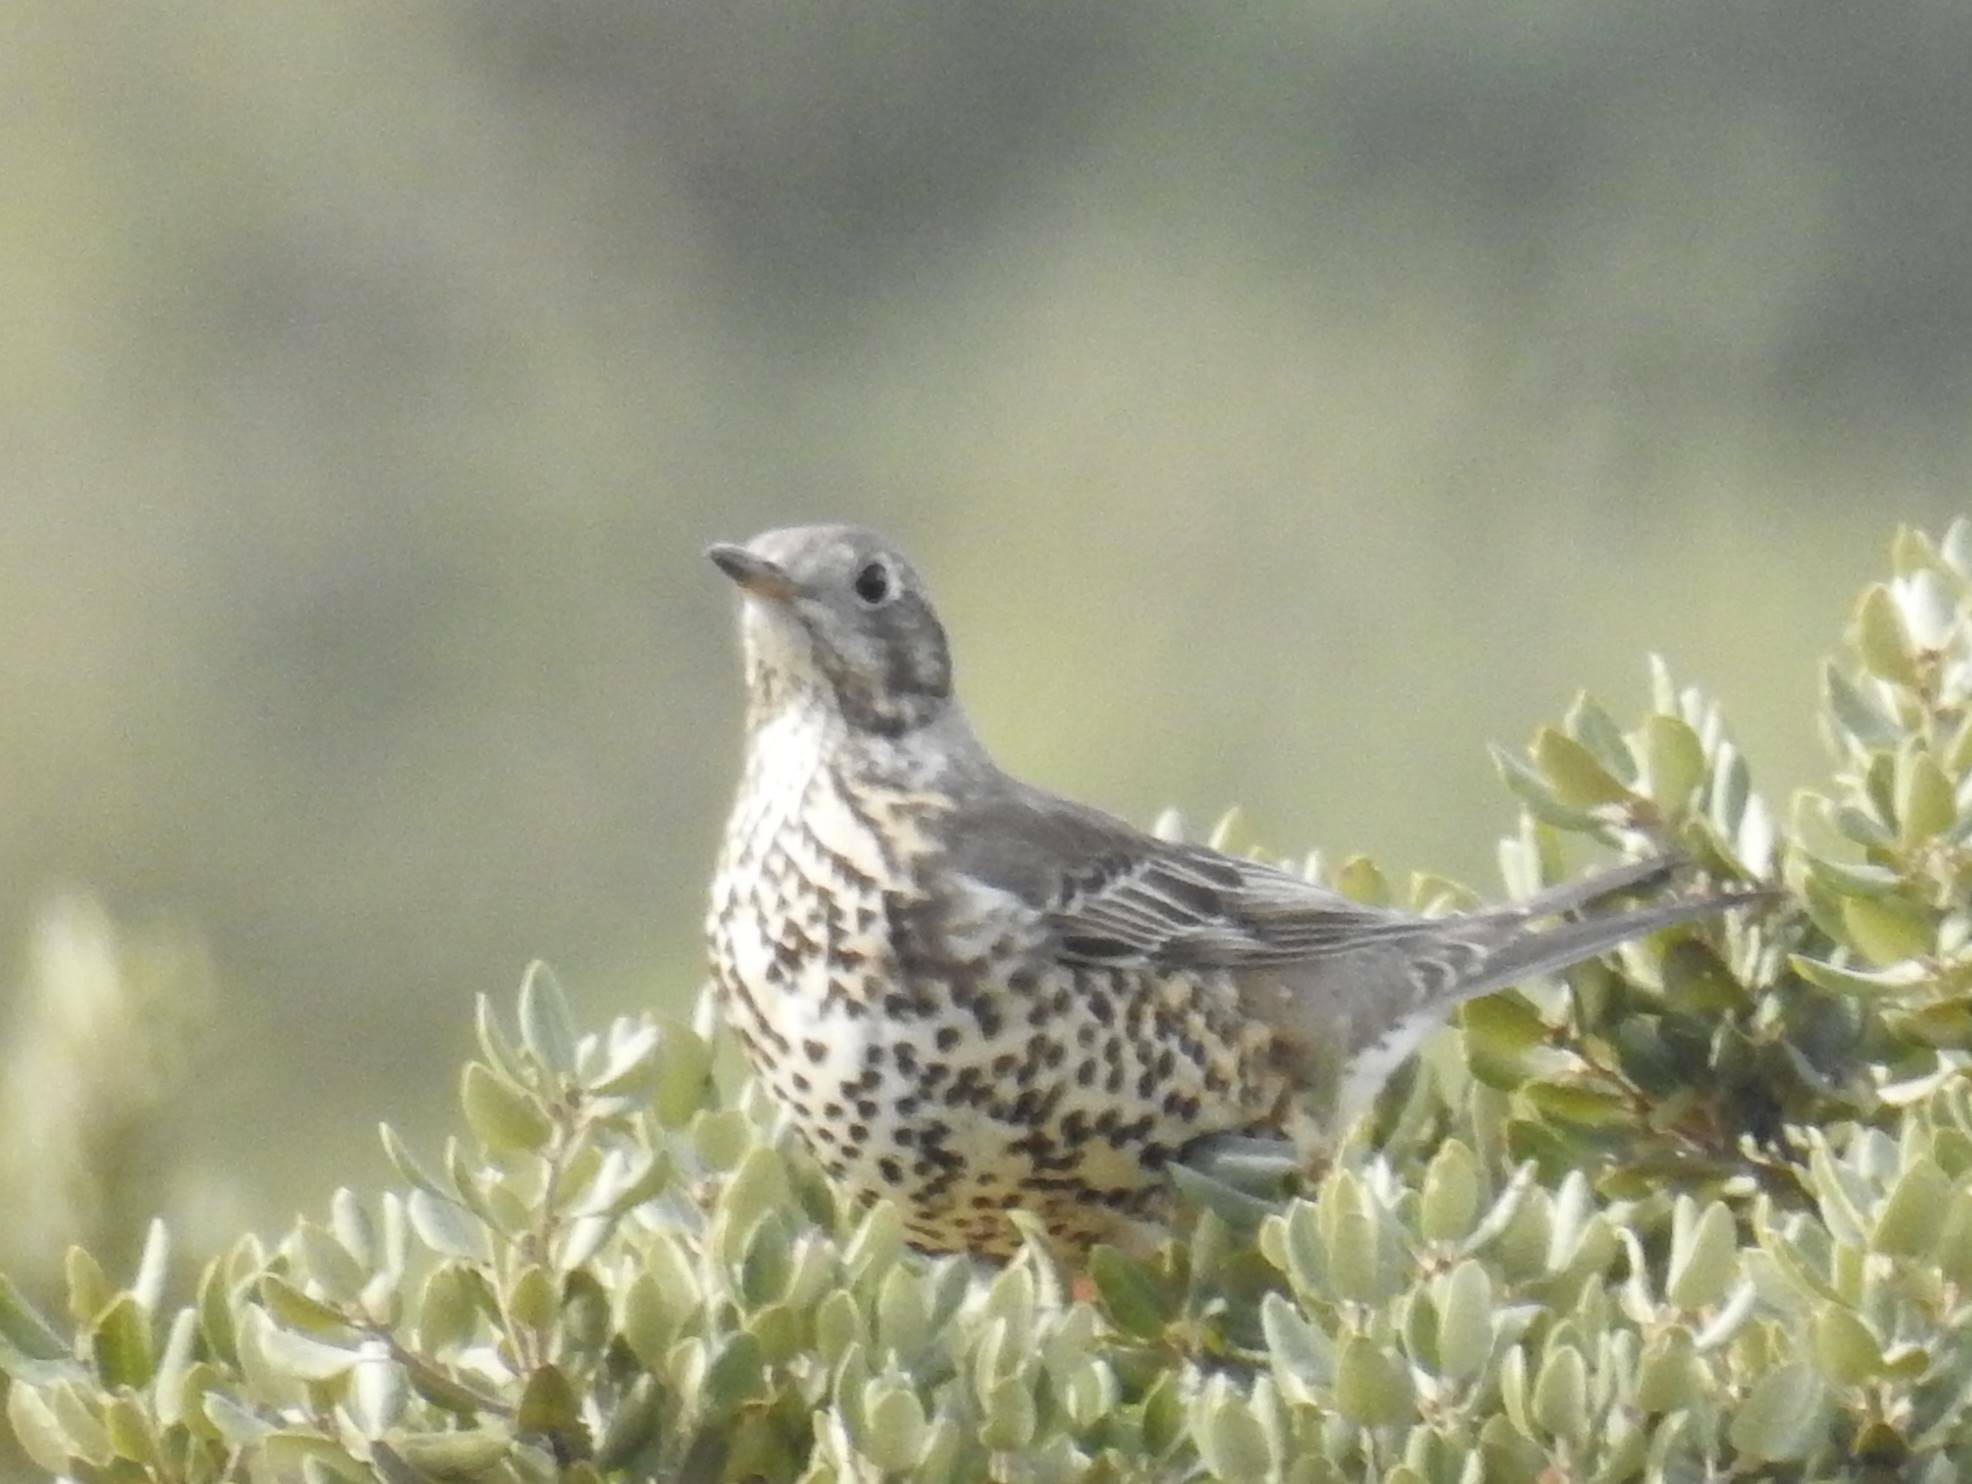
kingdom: Animalia
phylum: Chordata
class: Aves
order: Passeriformes
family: Turdidae
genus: Turdus
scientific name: Turdus viscivorus
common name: Mistle thrush
